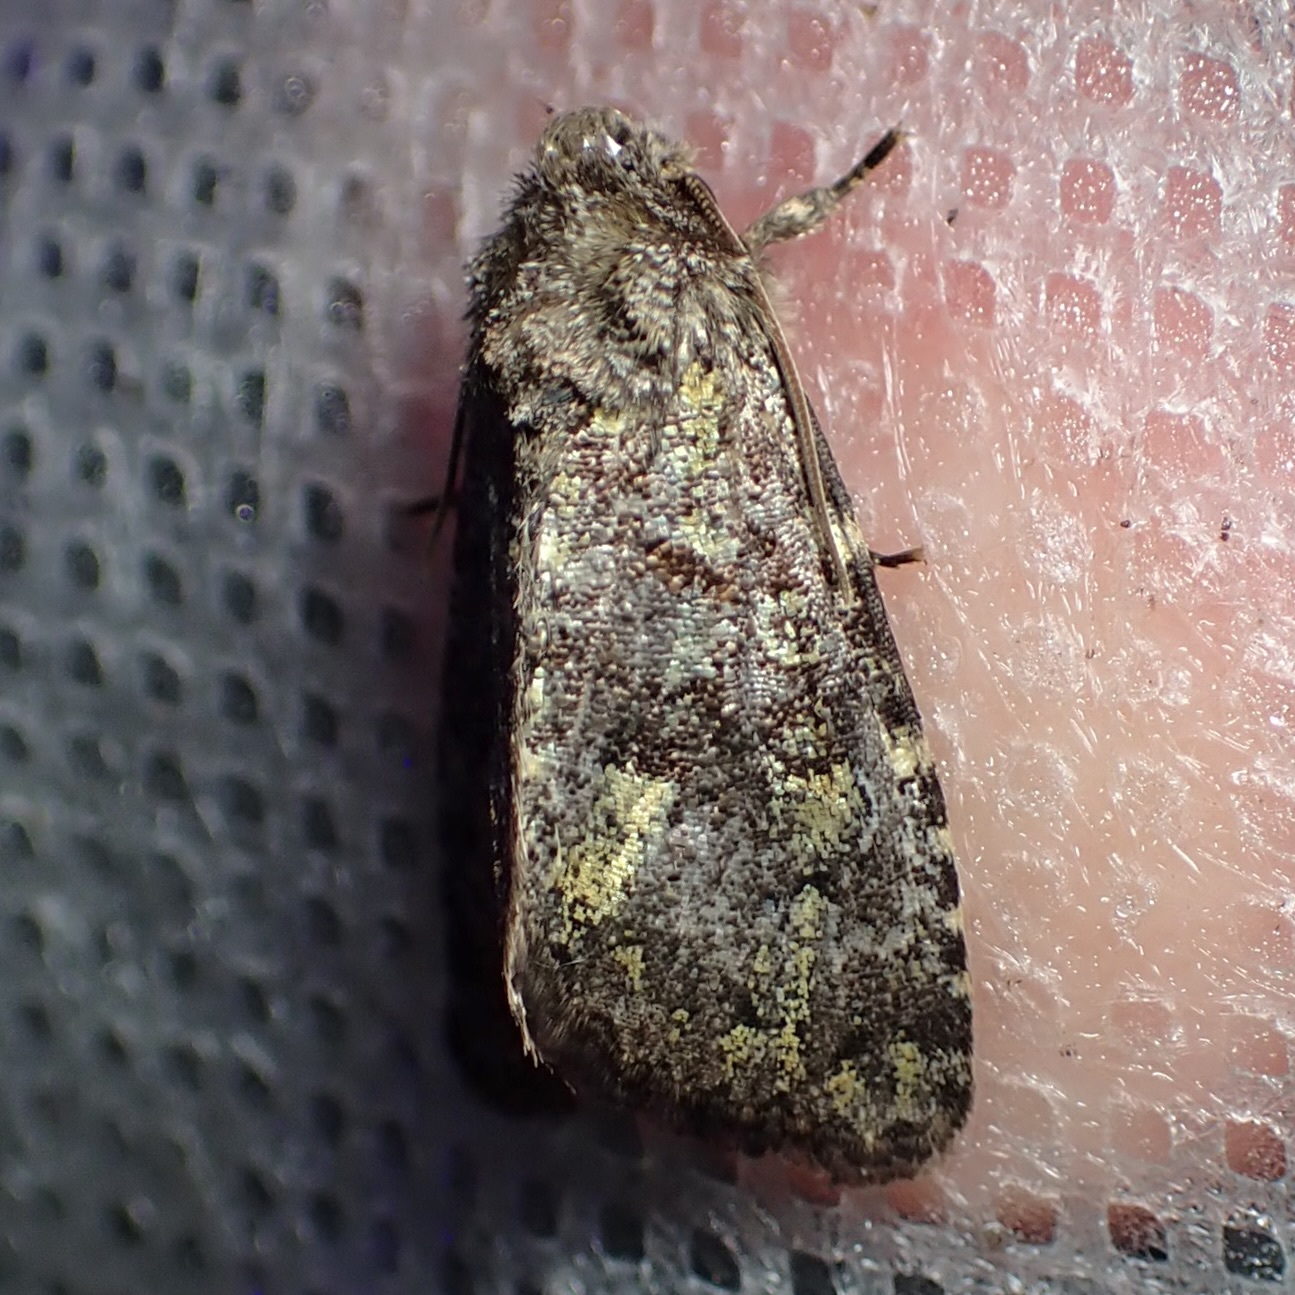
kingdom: Animalia
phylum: Arthropoda
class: Insecta
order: Lepidoptera
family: Noctuidae
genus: Paramiana
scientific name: Paramiana smaragdina
